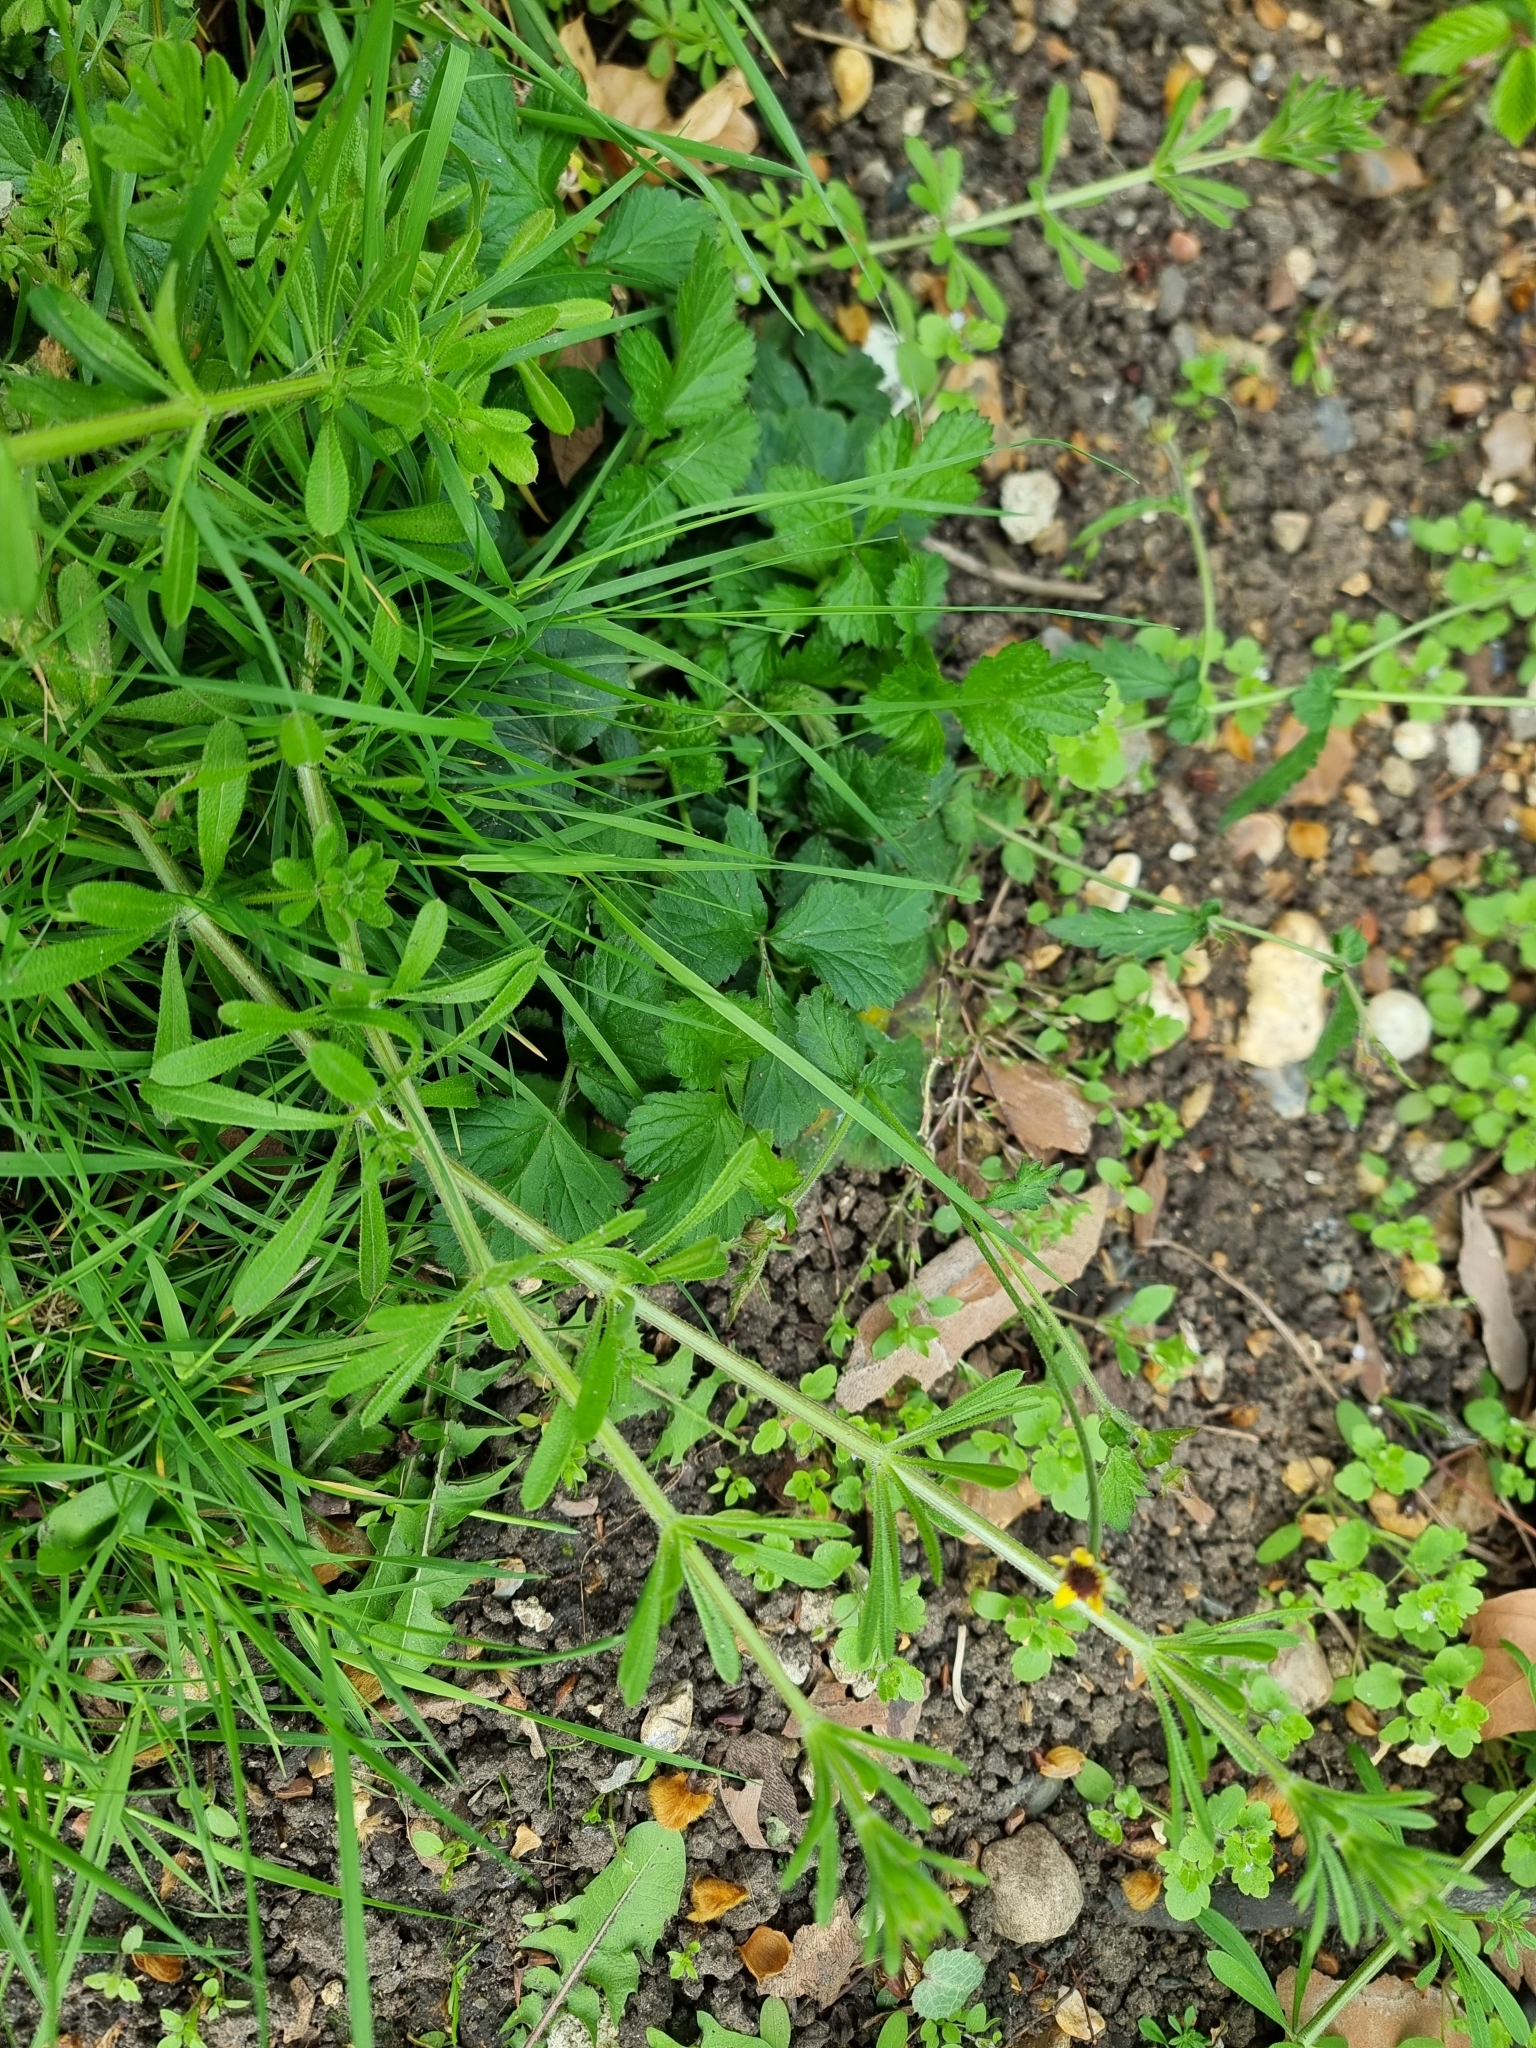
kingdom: Plantae
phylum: Tracheophyta
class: Magnoliopsida
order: Rosales
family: Rosaceae
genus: Geum
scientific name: Geum urbanum
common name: Wood avens
